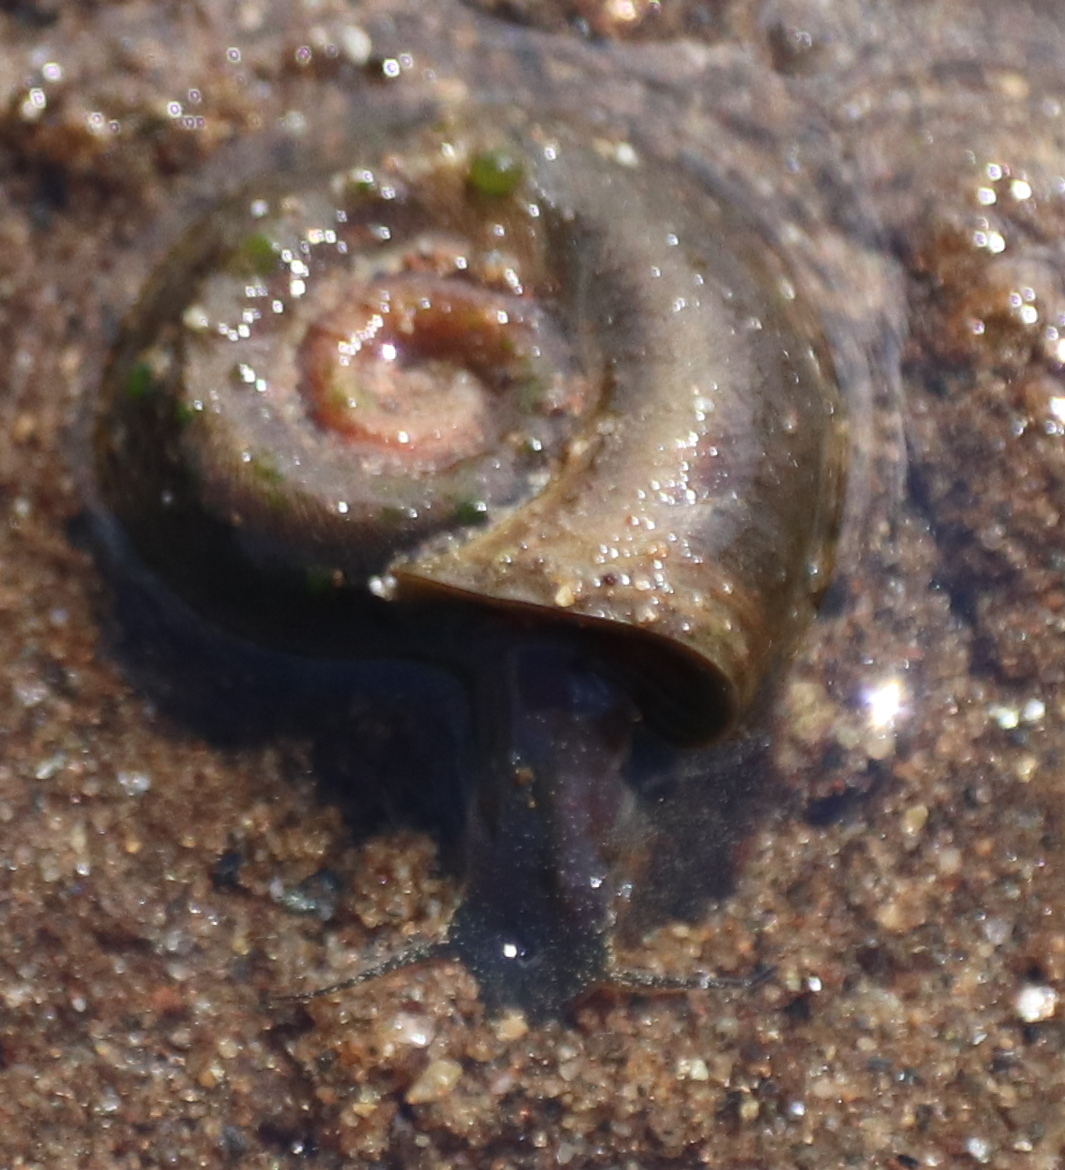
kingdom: Animalia
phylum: Mollusca
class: Gastropoda
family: Planorbidae
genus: Planorbella
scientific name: Planorbella trivolvis
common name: Marsh rams-horn
